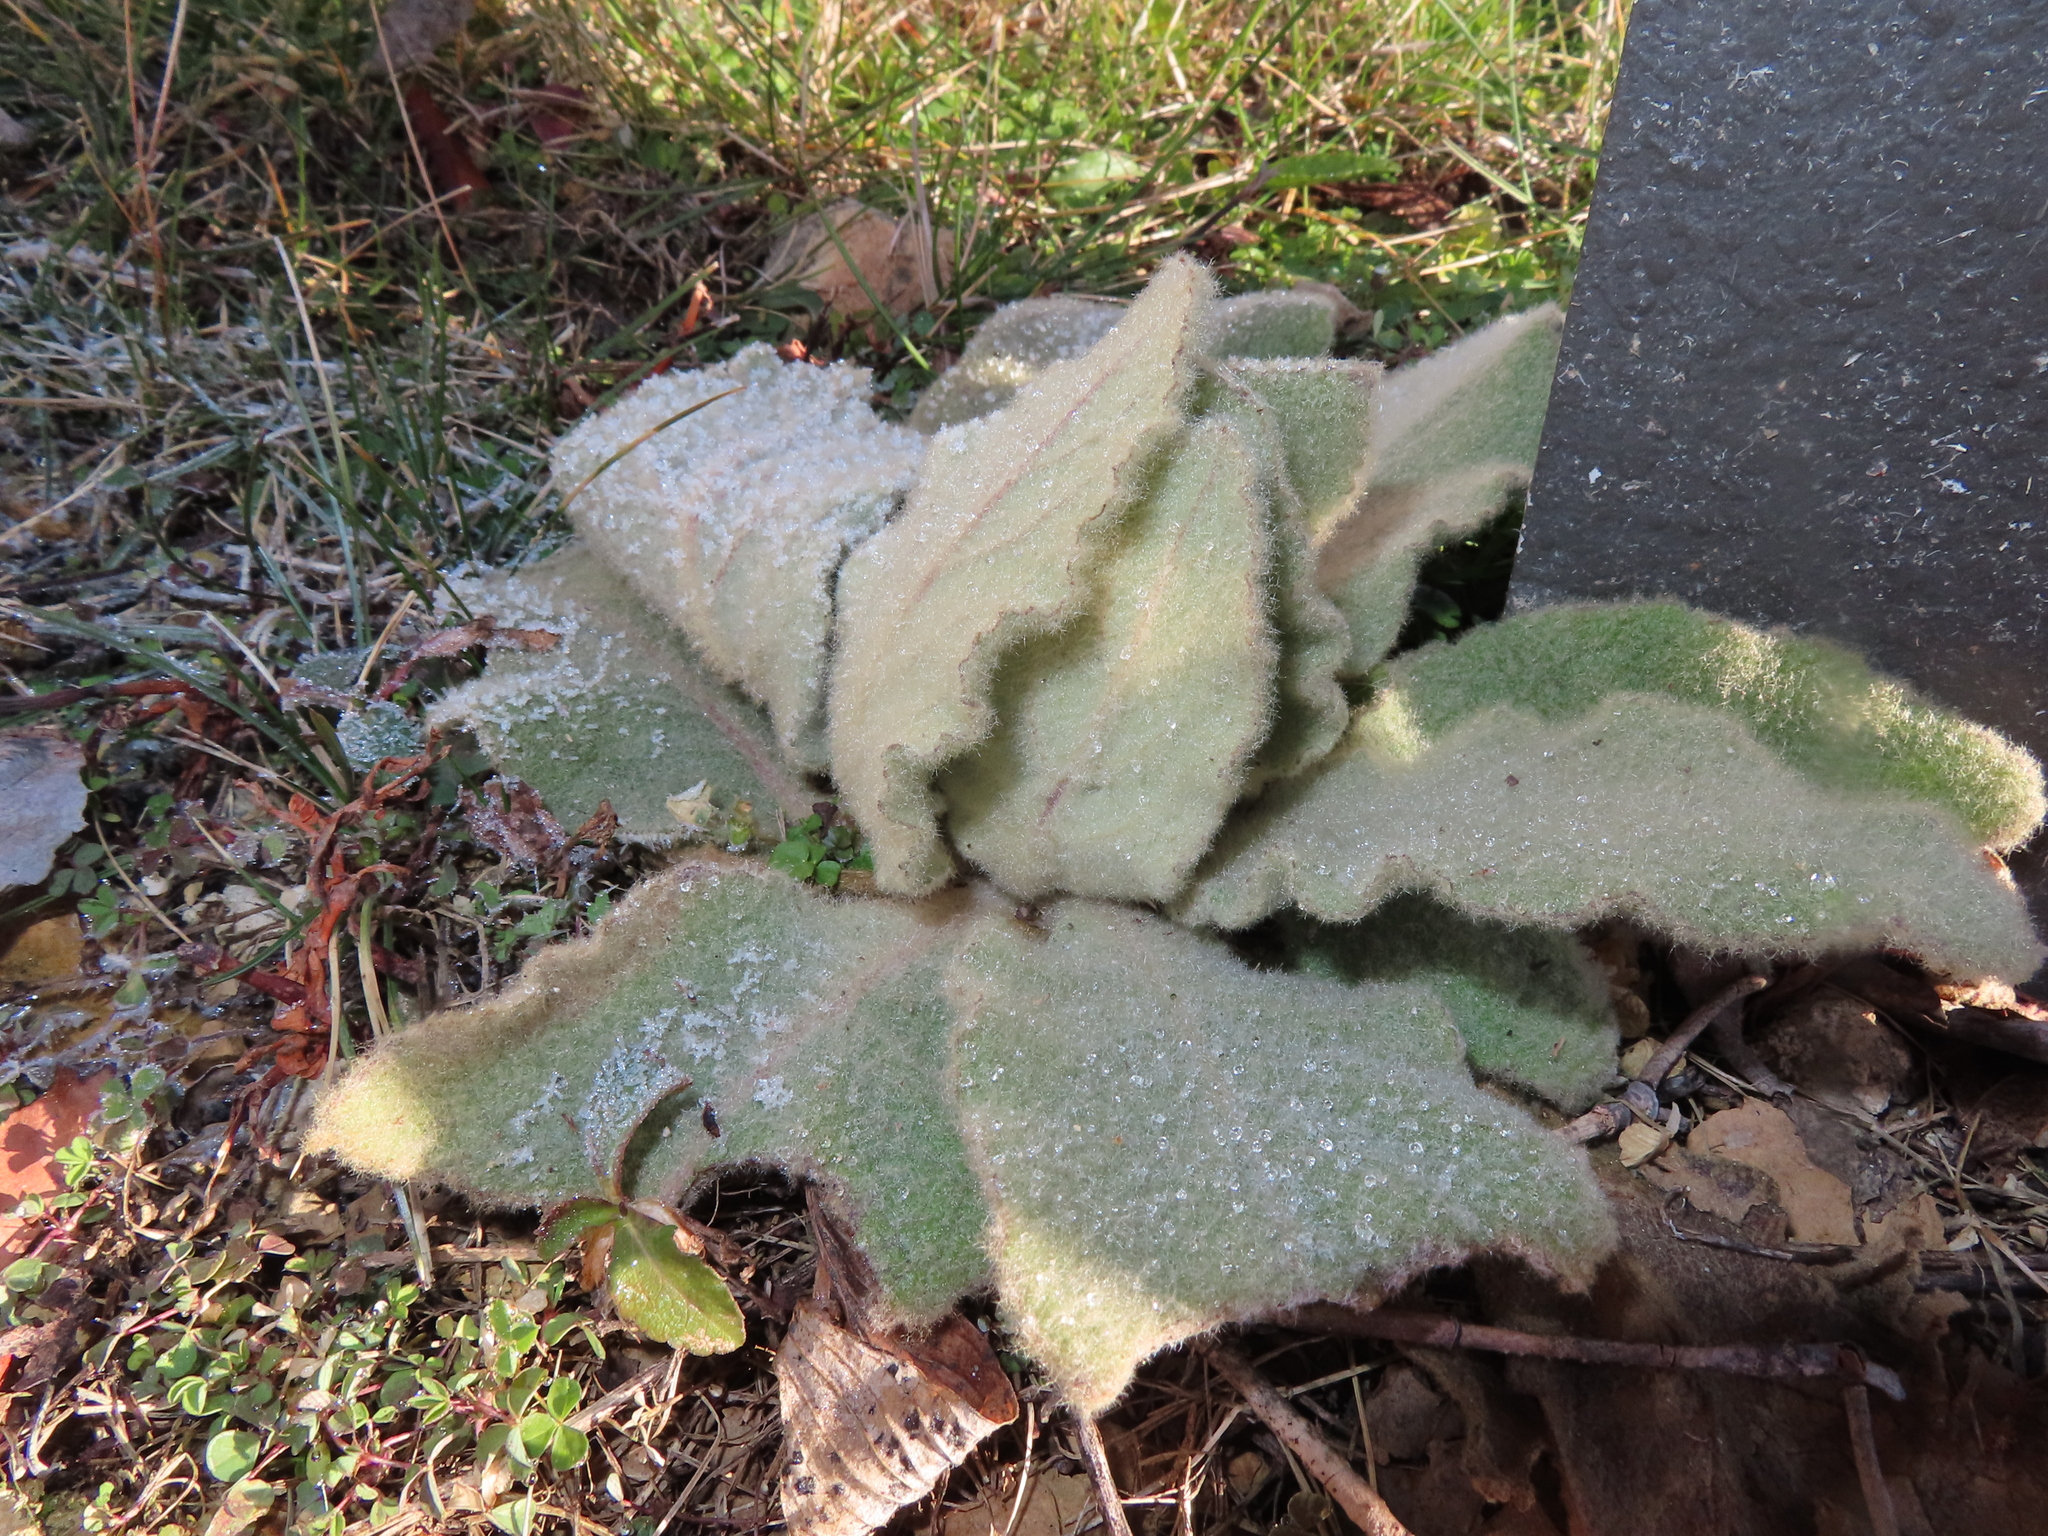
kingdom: Plantae
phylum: Tracheophyta
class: Magnoliopsida
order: Lamiales
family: Scrophulariaceae
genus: Verbascum
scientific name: Verbascum thapsus
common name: Common mullein
